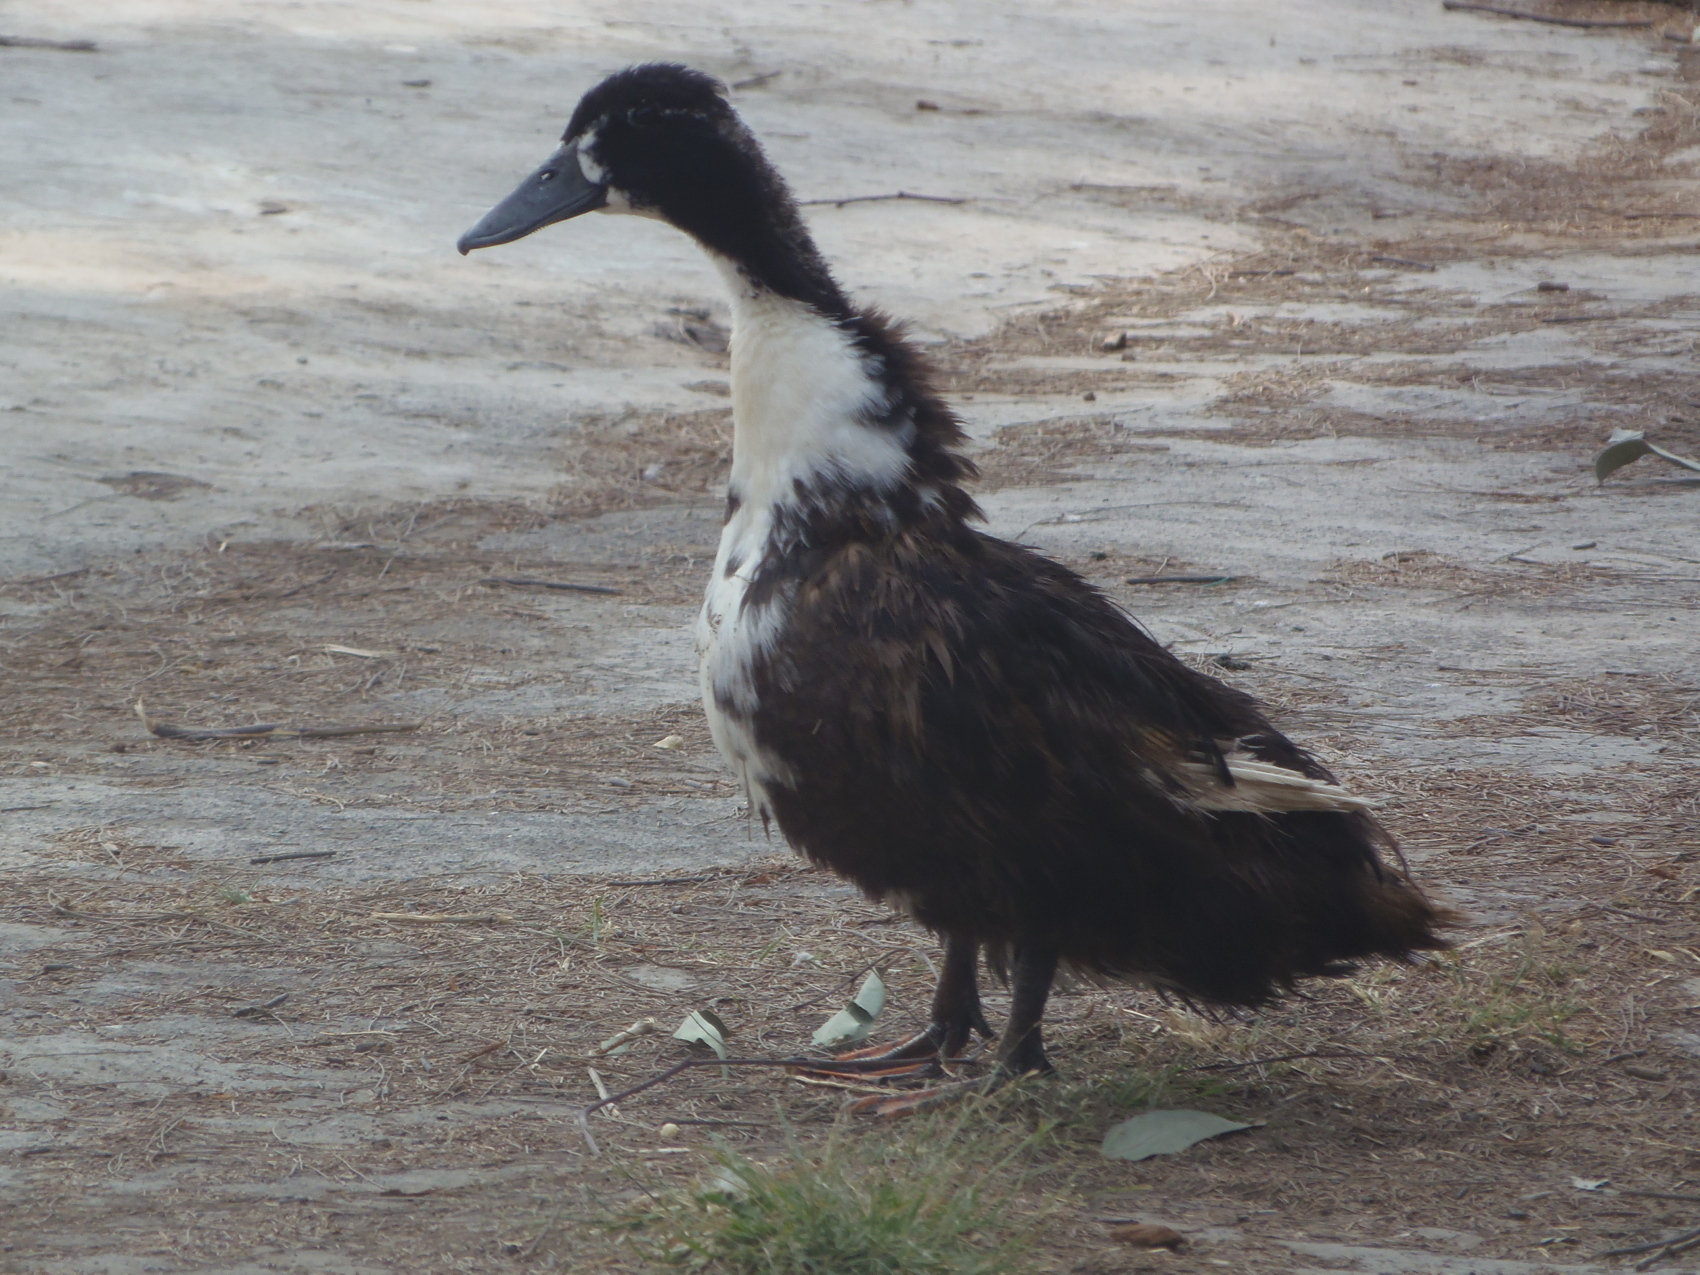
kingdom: Animalia
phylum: Chordata
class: Aves
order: Anseriformes
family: Anatidae
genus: Anas
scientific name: Anas platyrhynchos
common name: Mallard
